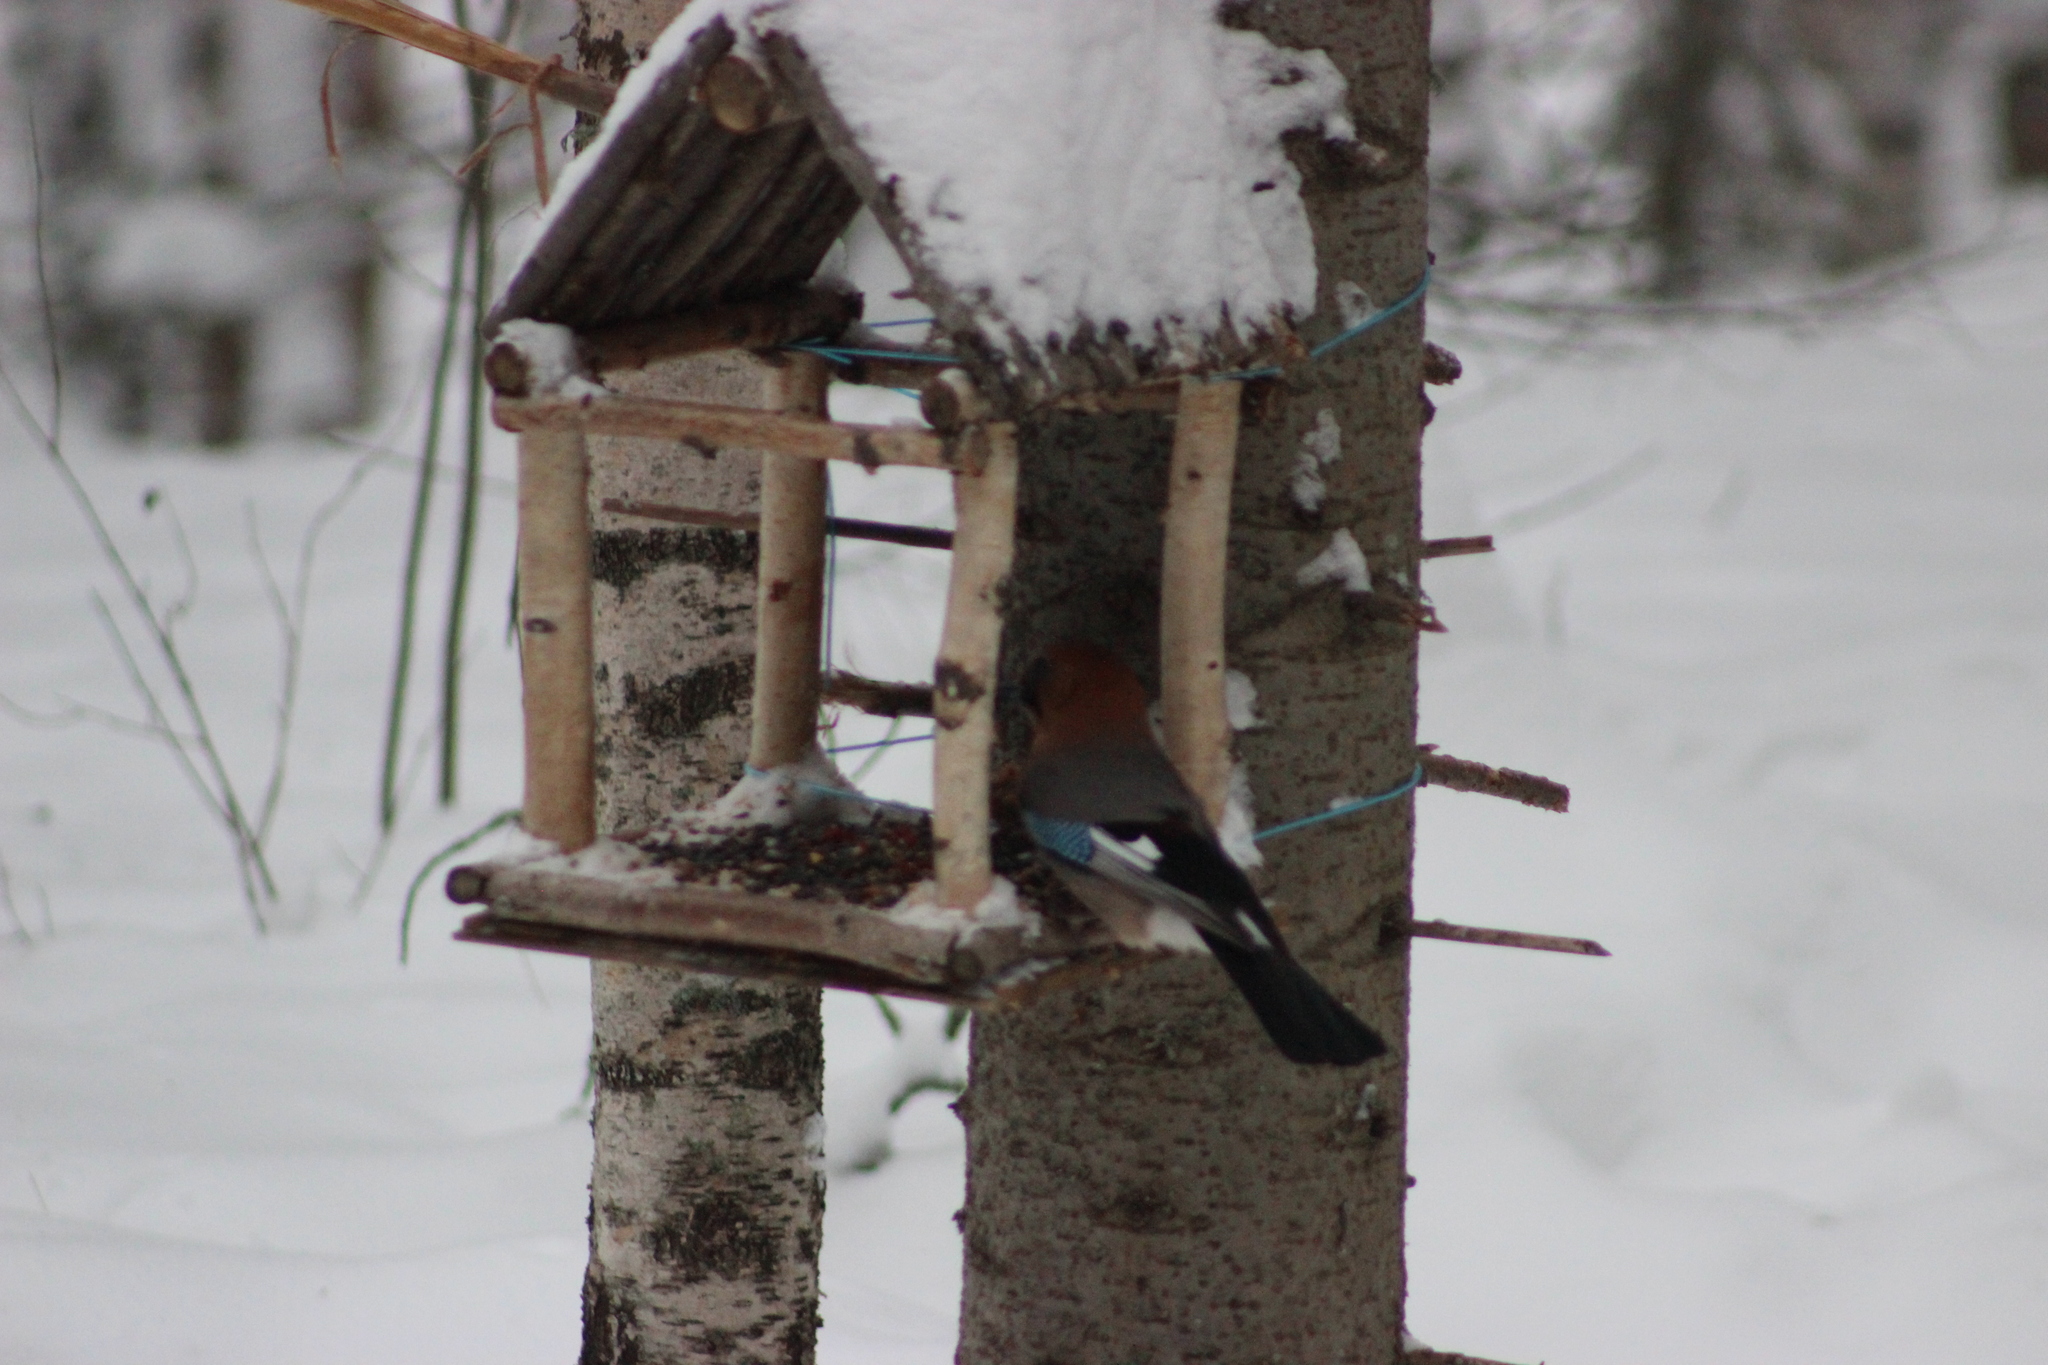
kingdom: Animalia
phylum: Chordata
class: Aves
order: Passeriformes
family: Corvidae
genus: Garrulus
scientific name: Garrulus glandarius
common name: Eurasian jay
